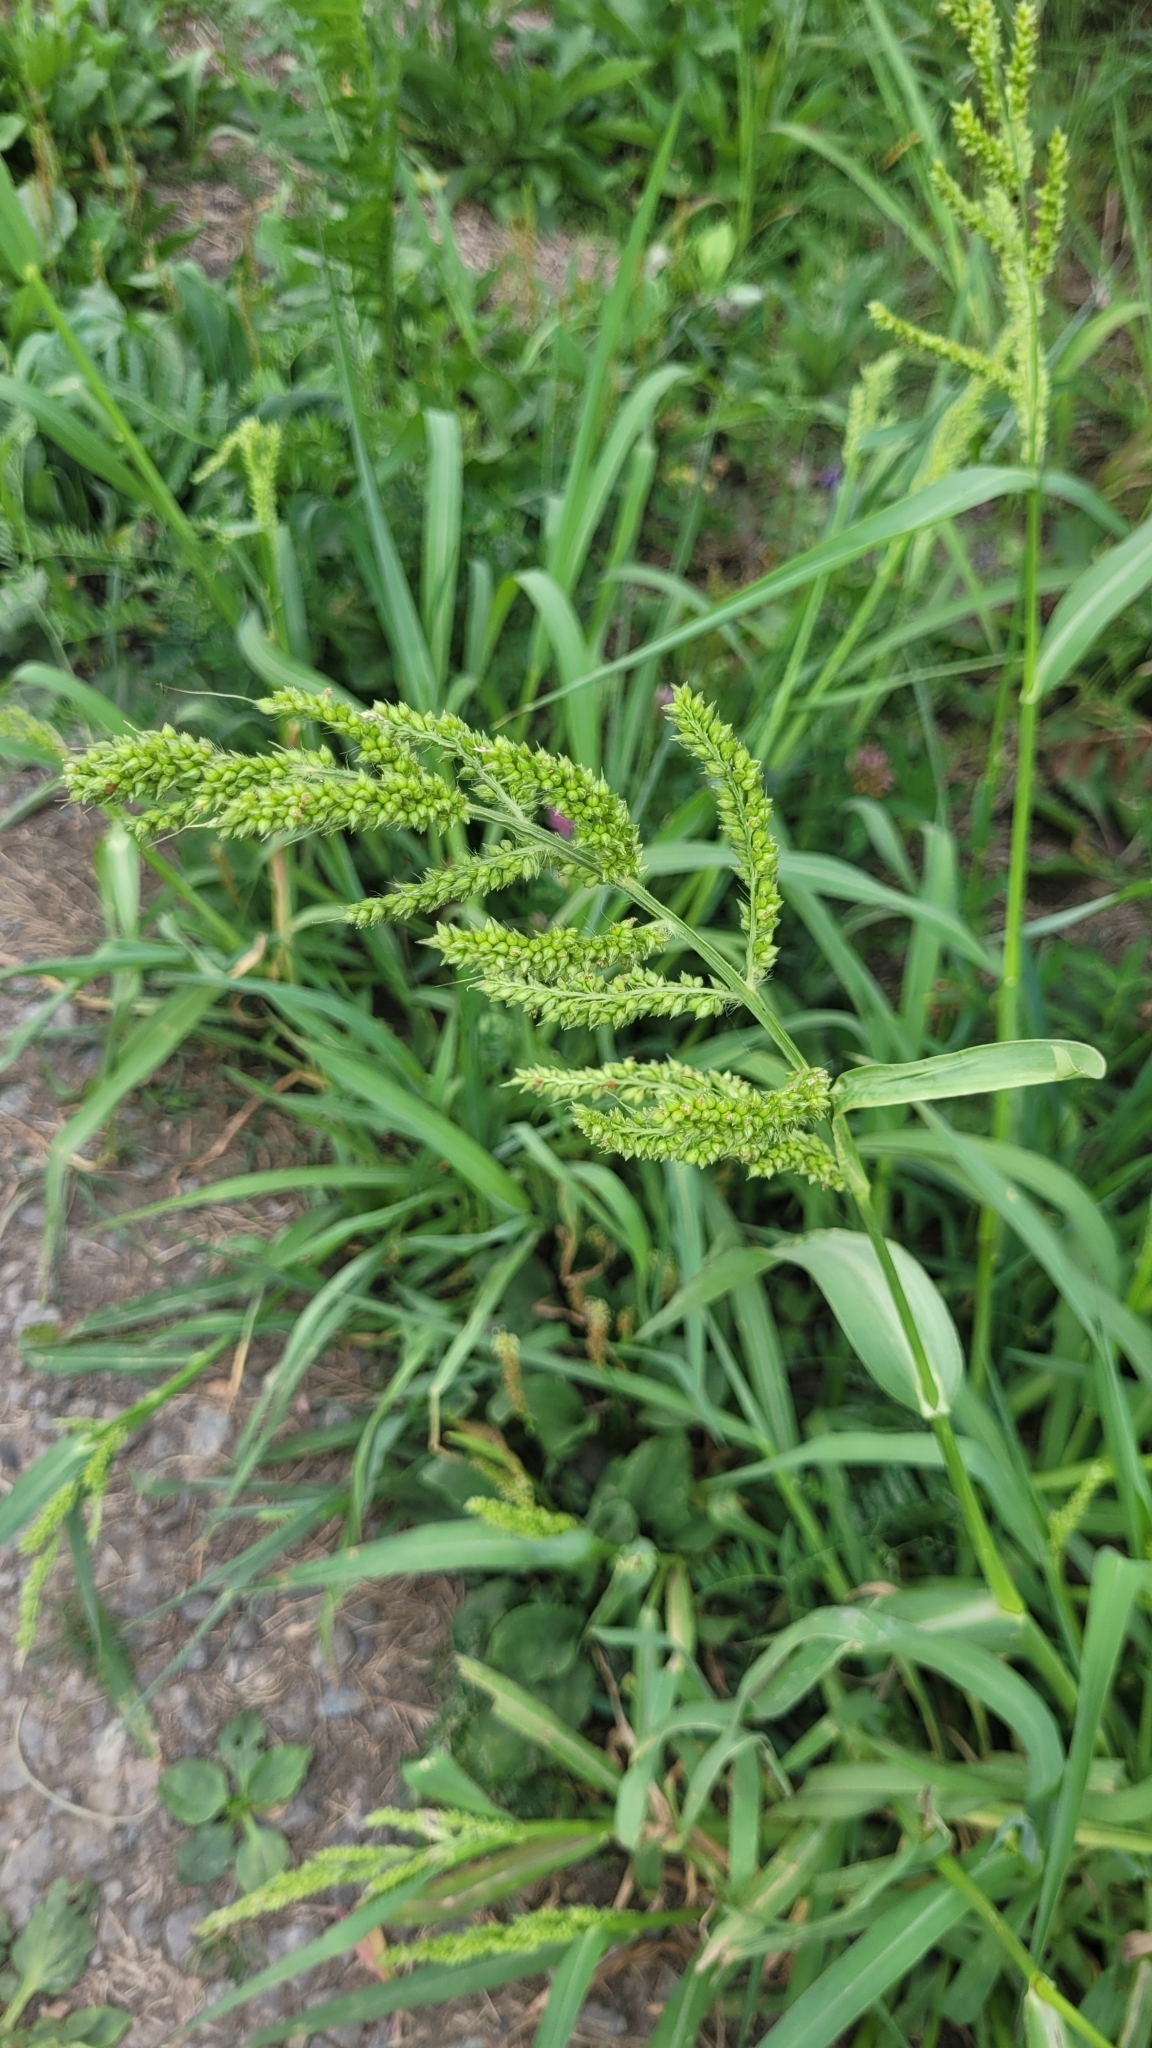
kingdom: Plantae
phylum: Tracheophyta
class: Liliopsida
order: Poales
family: Poaceae
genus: Echinochloa
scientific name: Echinochloa crus-galli
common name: Cockspur
